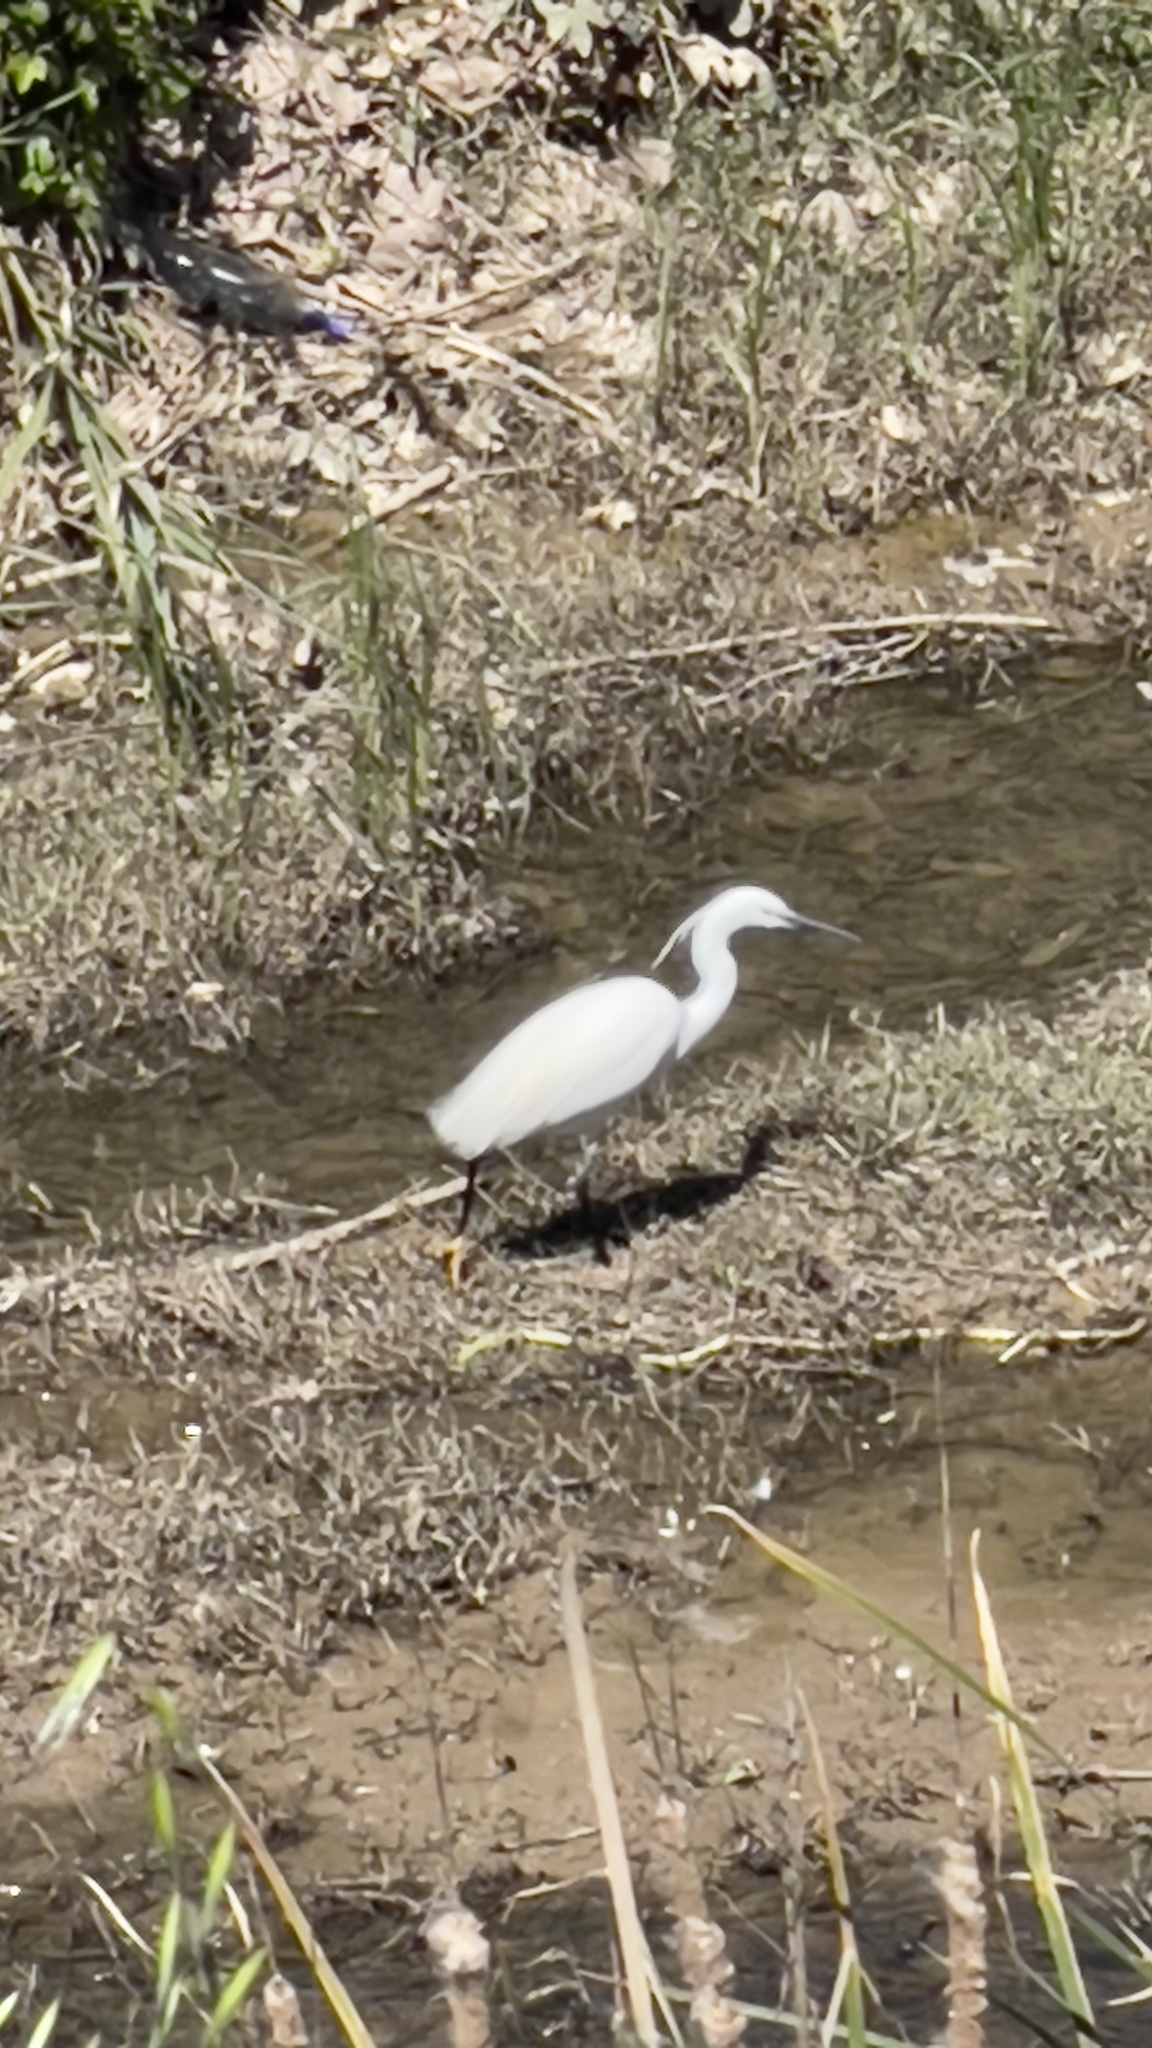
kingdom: Animalia
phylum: Chordata
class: Aves
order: Pelecaniformes
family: Ardeidae
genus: Egretta
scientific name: Egretta garzetta
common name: Little egret
